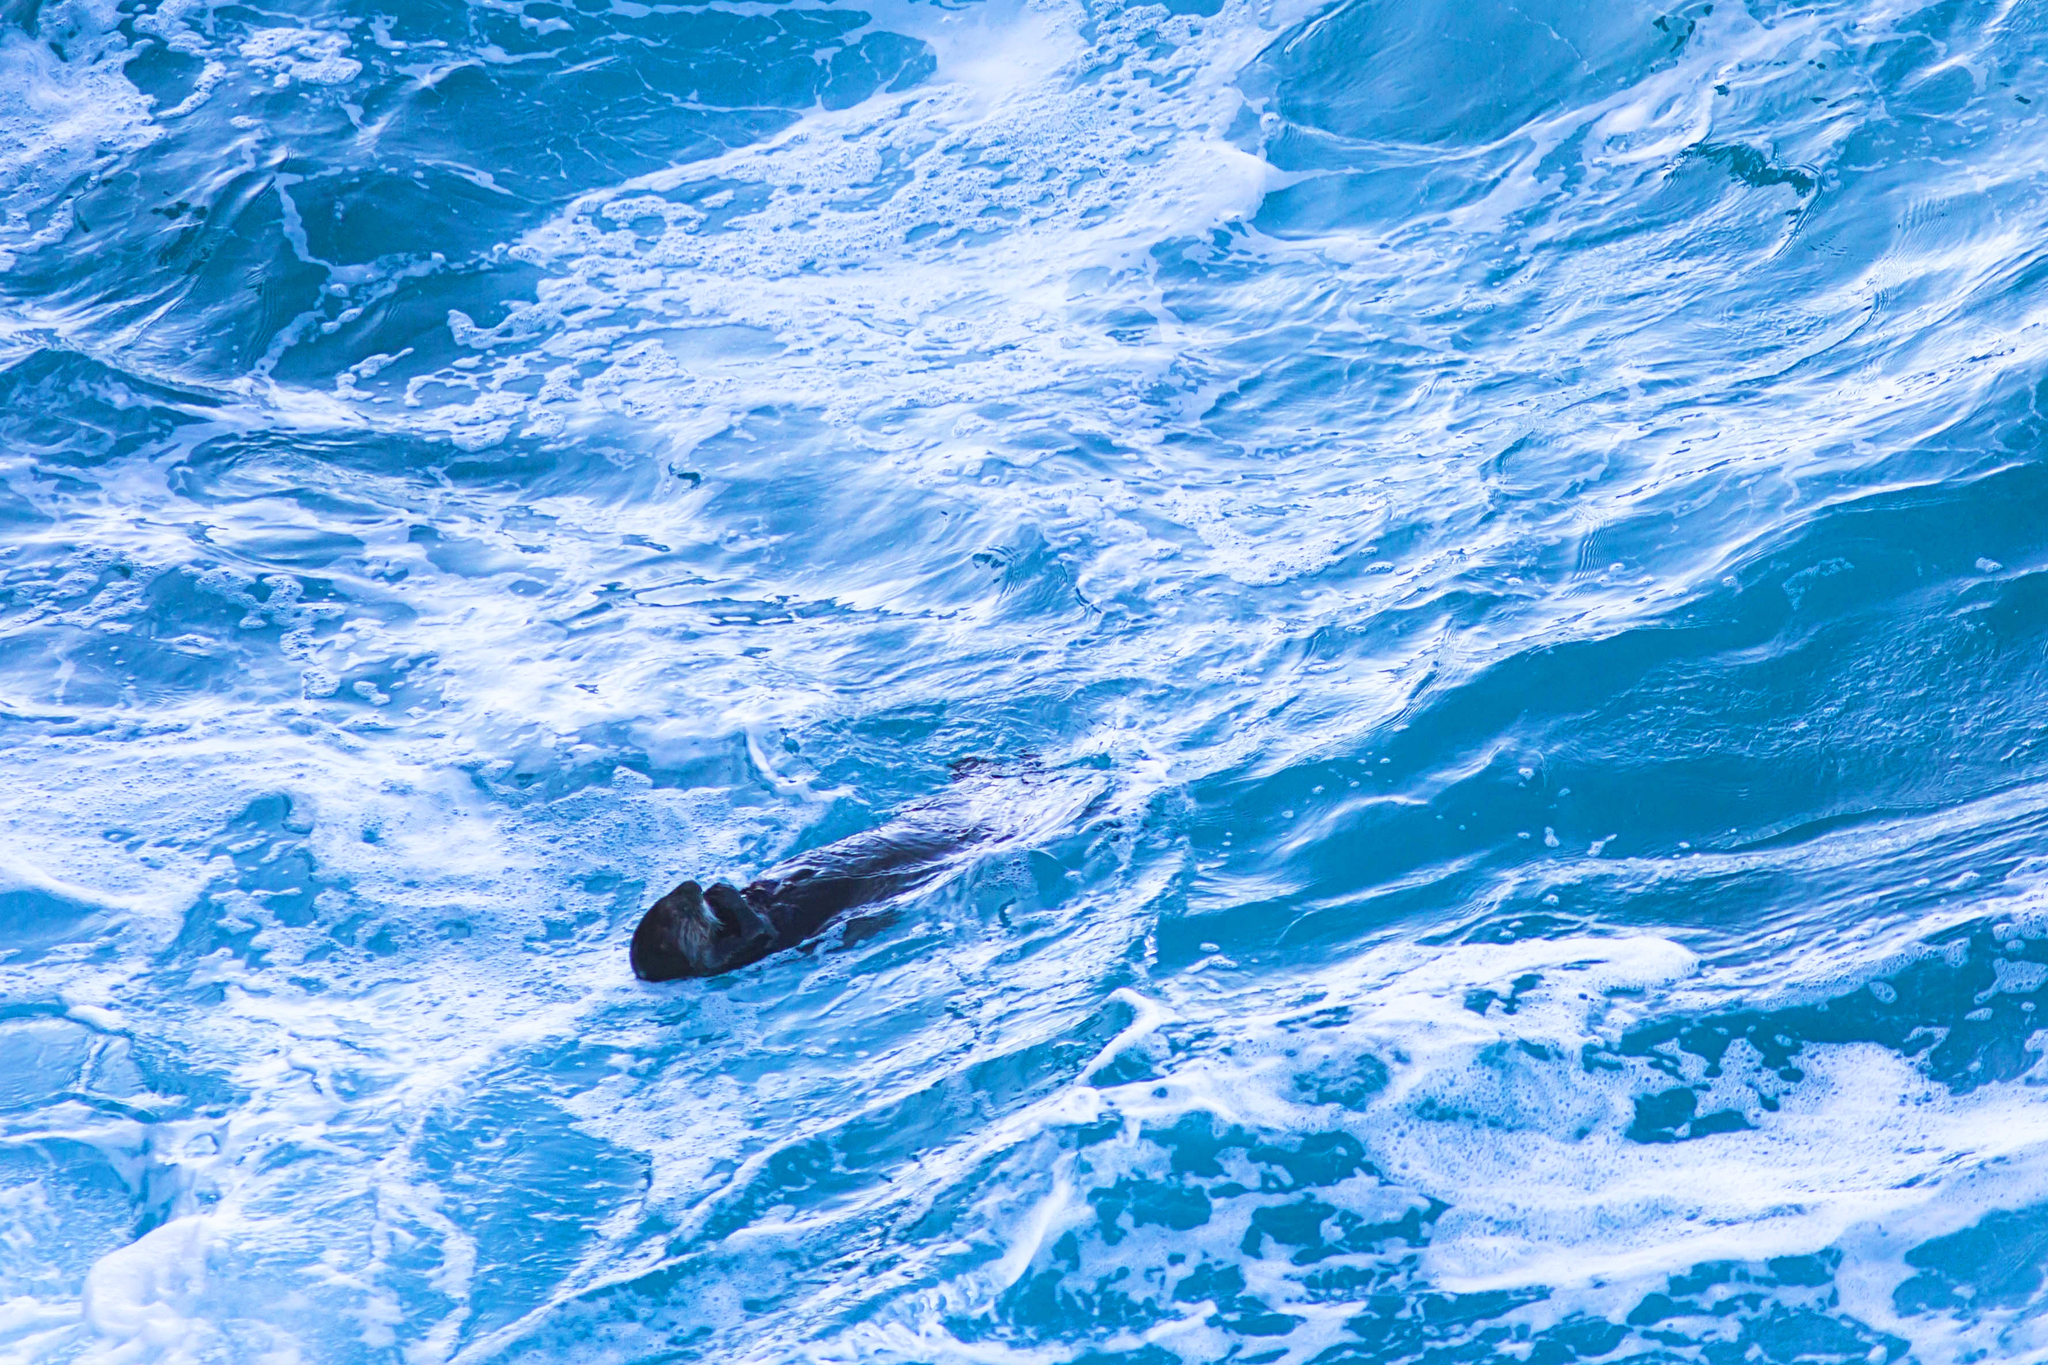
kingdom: Animalia
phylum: Chordata
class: Mammalia
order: Carnivora
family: Mustelidae
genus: Enhydra
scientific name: Enhydra lutris
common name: Sea otter
